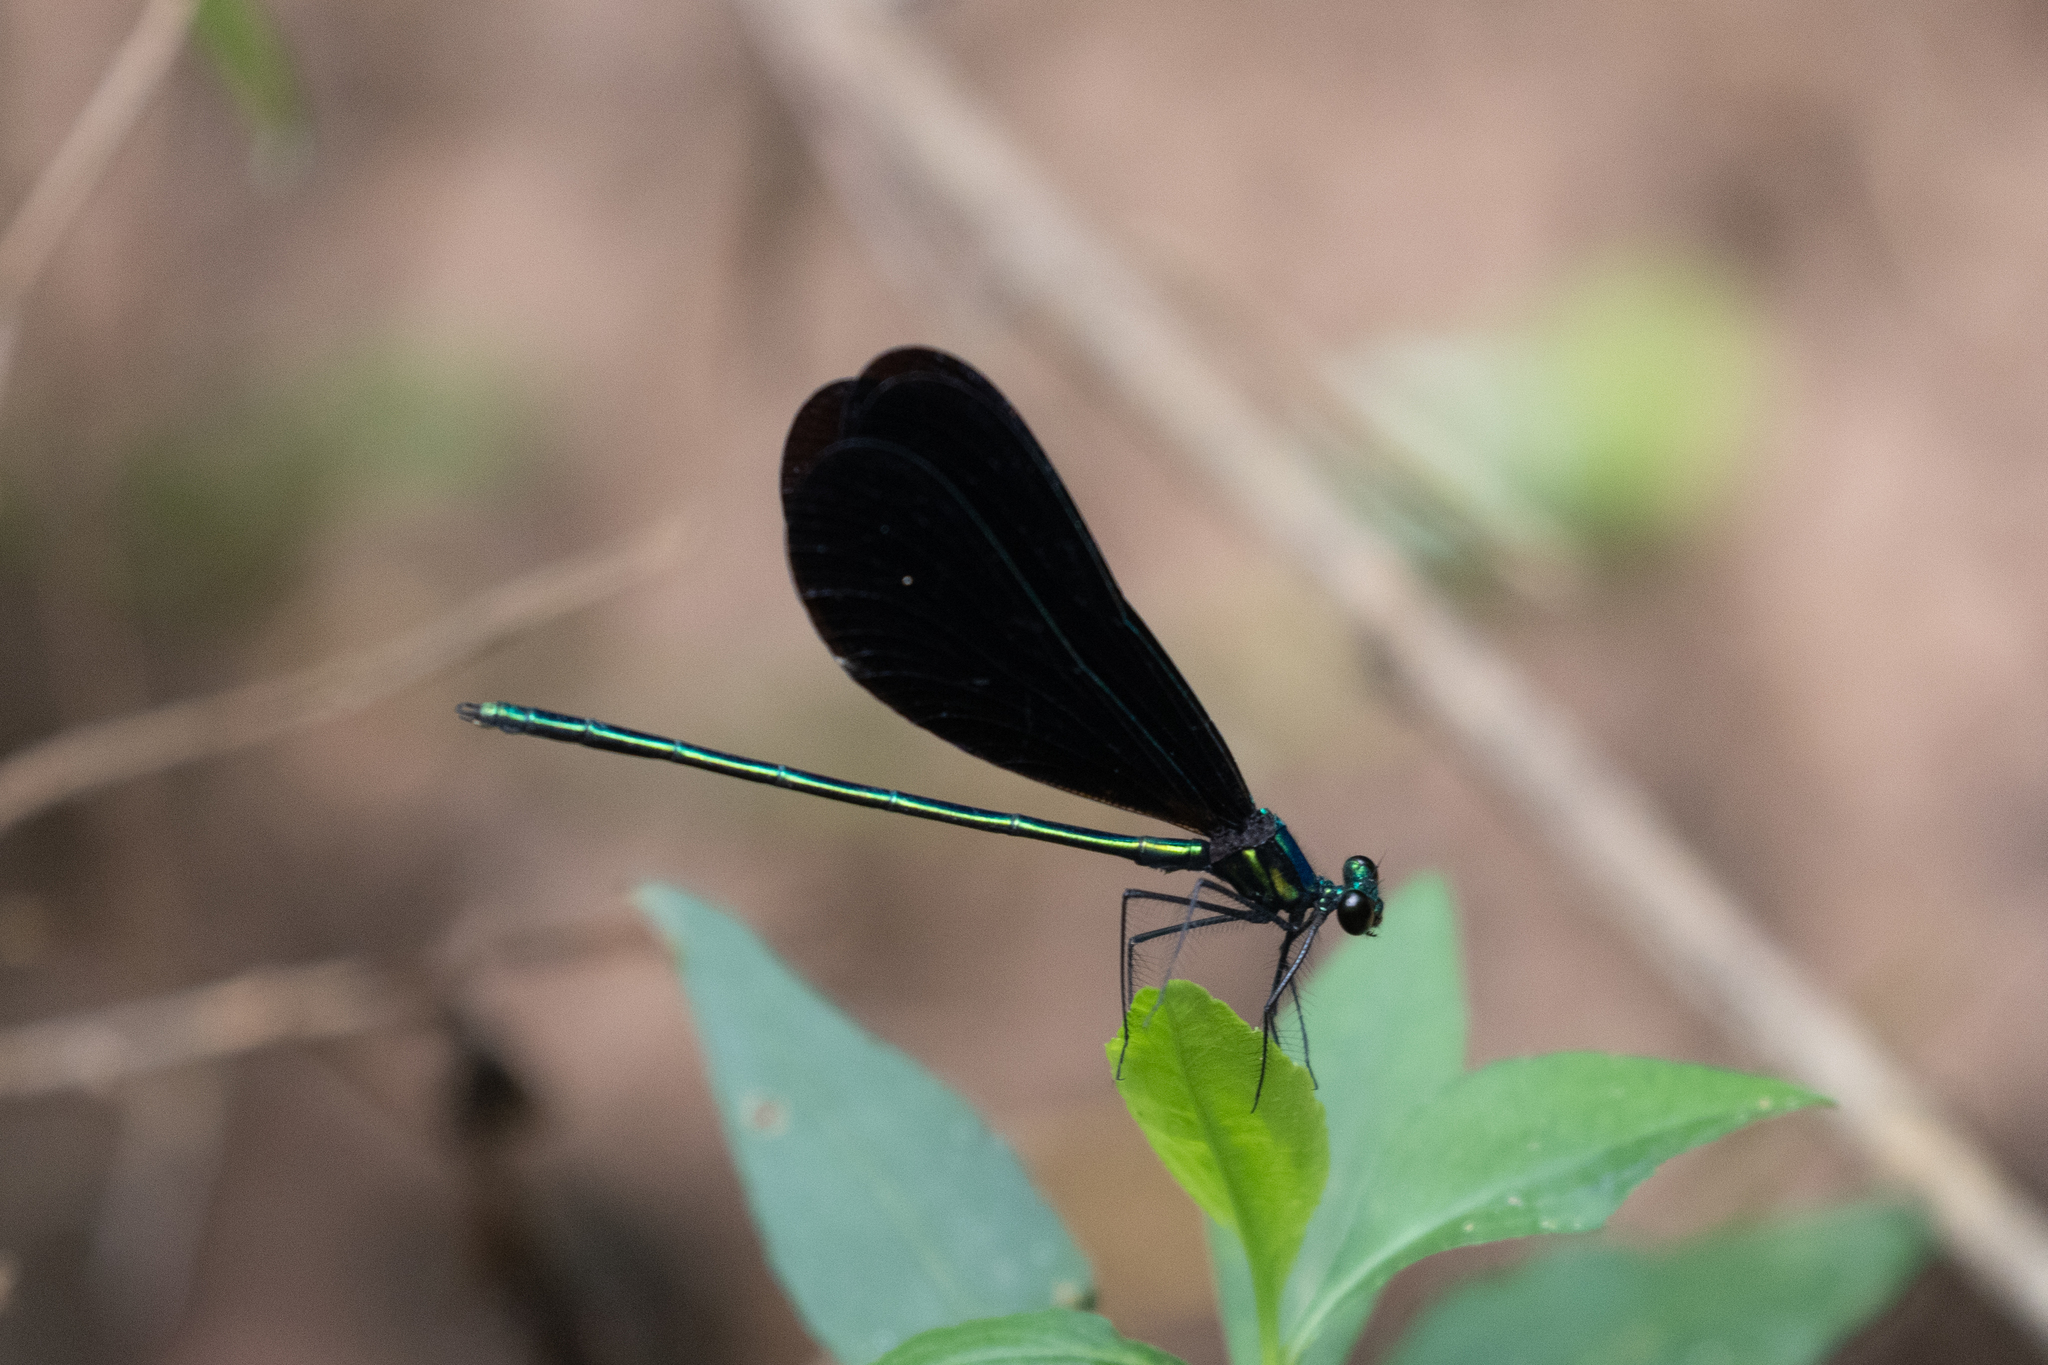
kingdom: Animalia
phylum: Arthropoda
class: Insecta
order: Odonata
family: Calopterygidae
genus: Calopteryx
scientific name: Calopteryx maculata
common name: Ebony jewelwing
